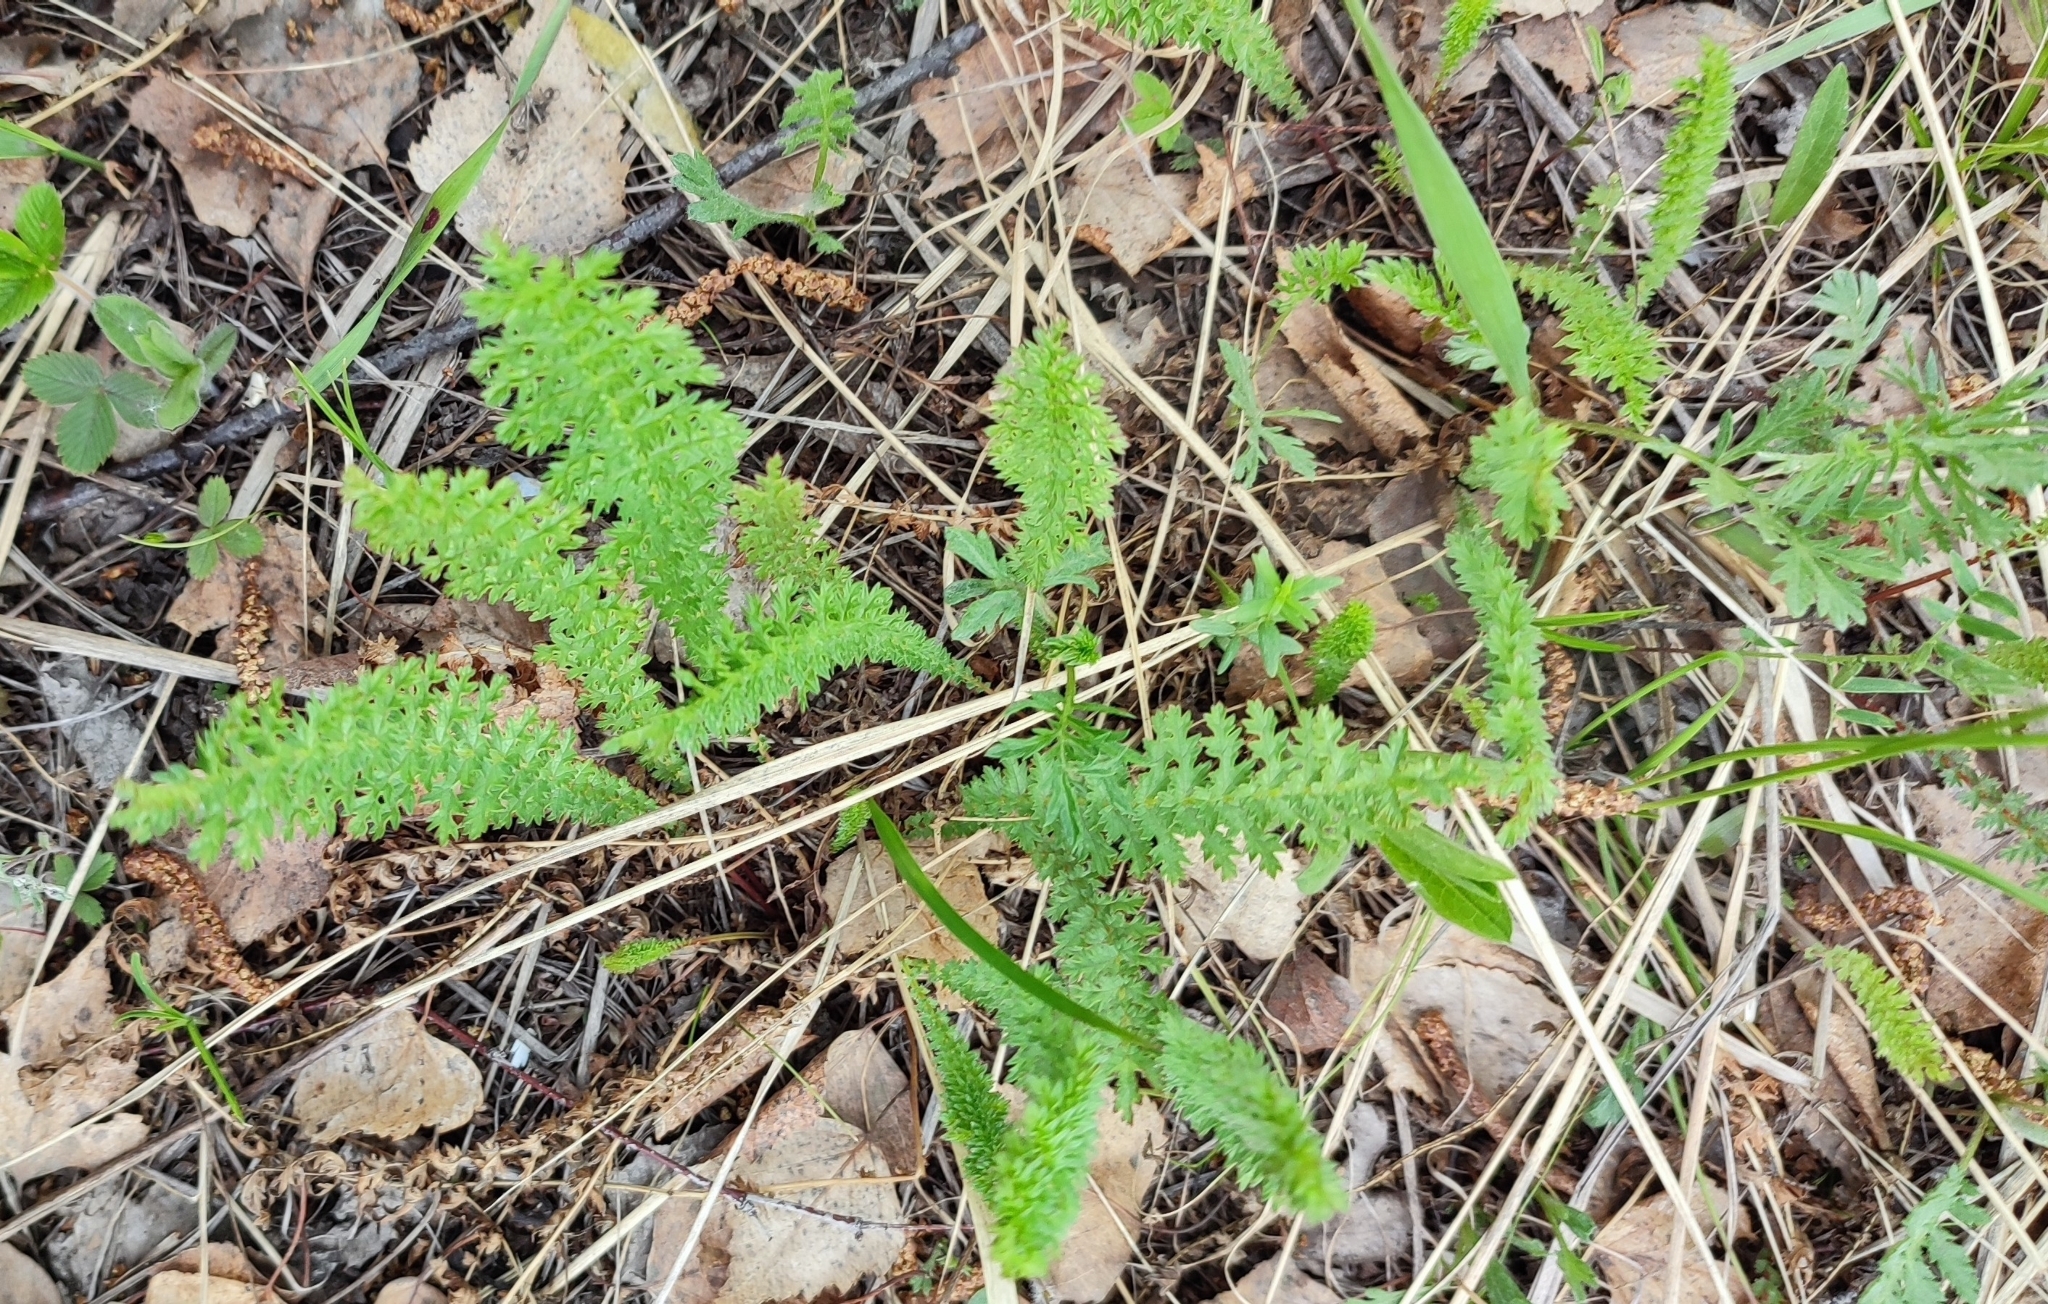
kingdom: Plantae
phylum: Tracheophyta
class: Magnoliopsida
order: Rosales
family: Rosaceae
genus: Filipendula
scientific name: Filipendula vulgaris
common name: Dropwort
